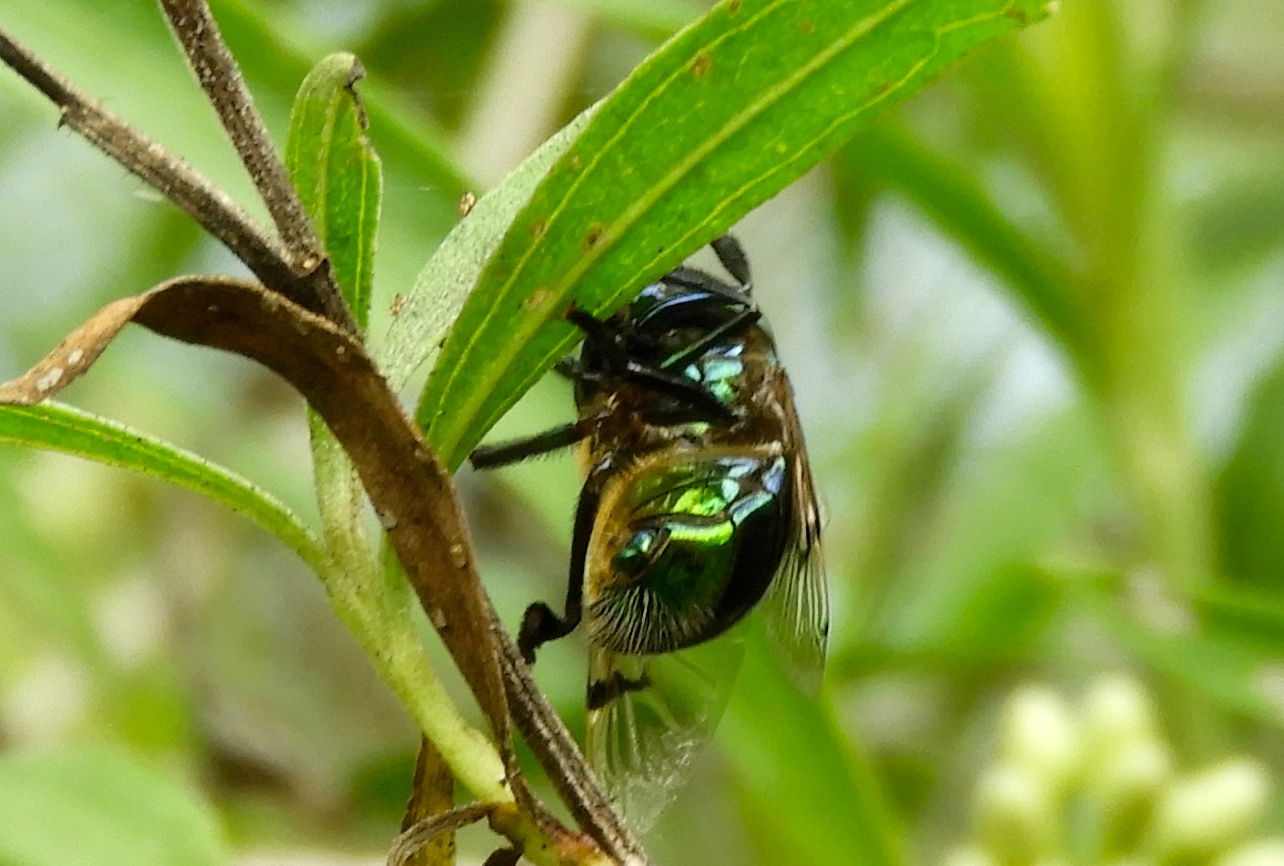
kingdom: Animalia
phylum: Arthropoda
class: Insecta
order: Diptera
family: Syrphidae
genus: Ornidia
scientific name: Ornidia
